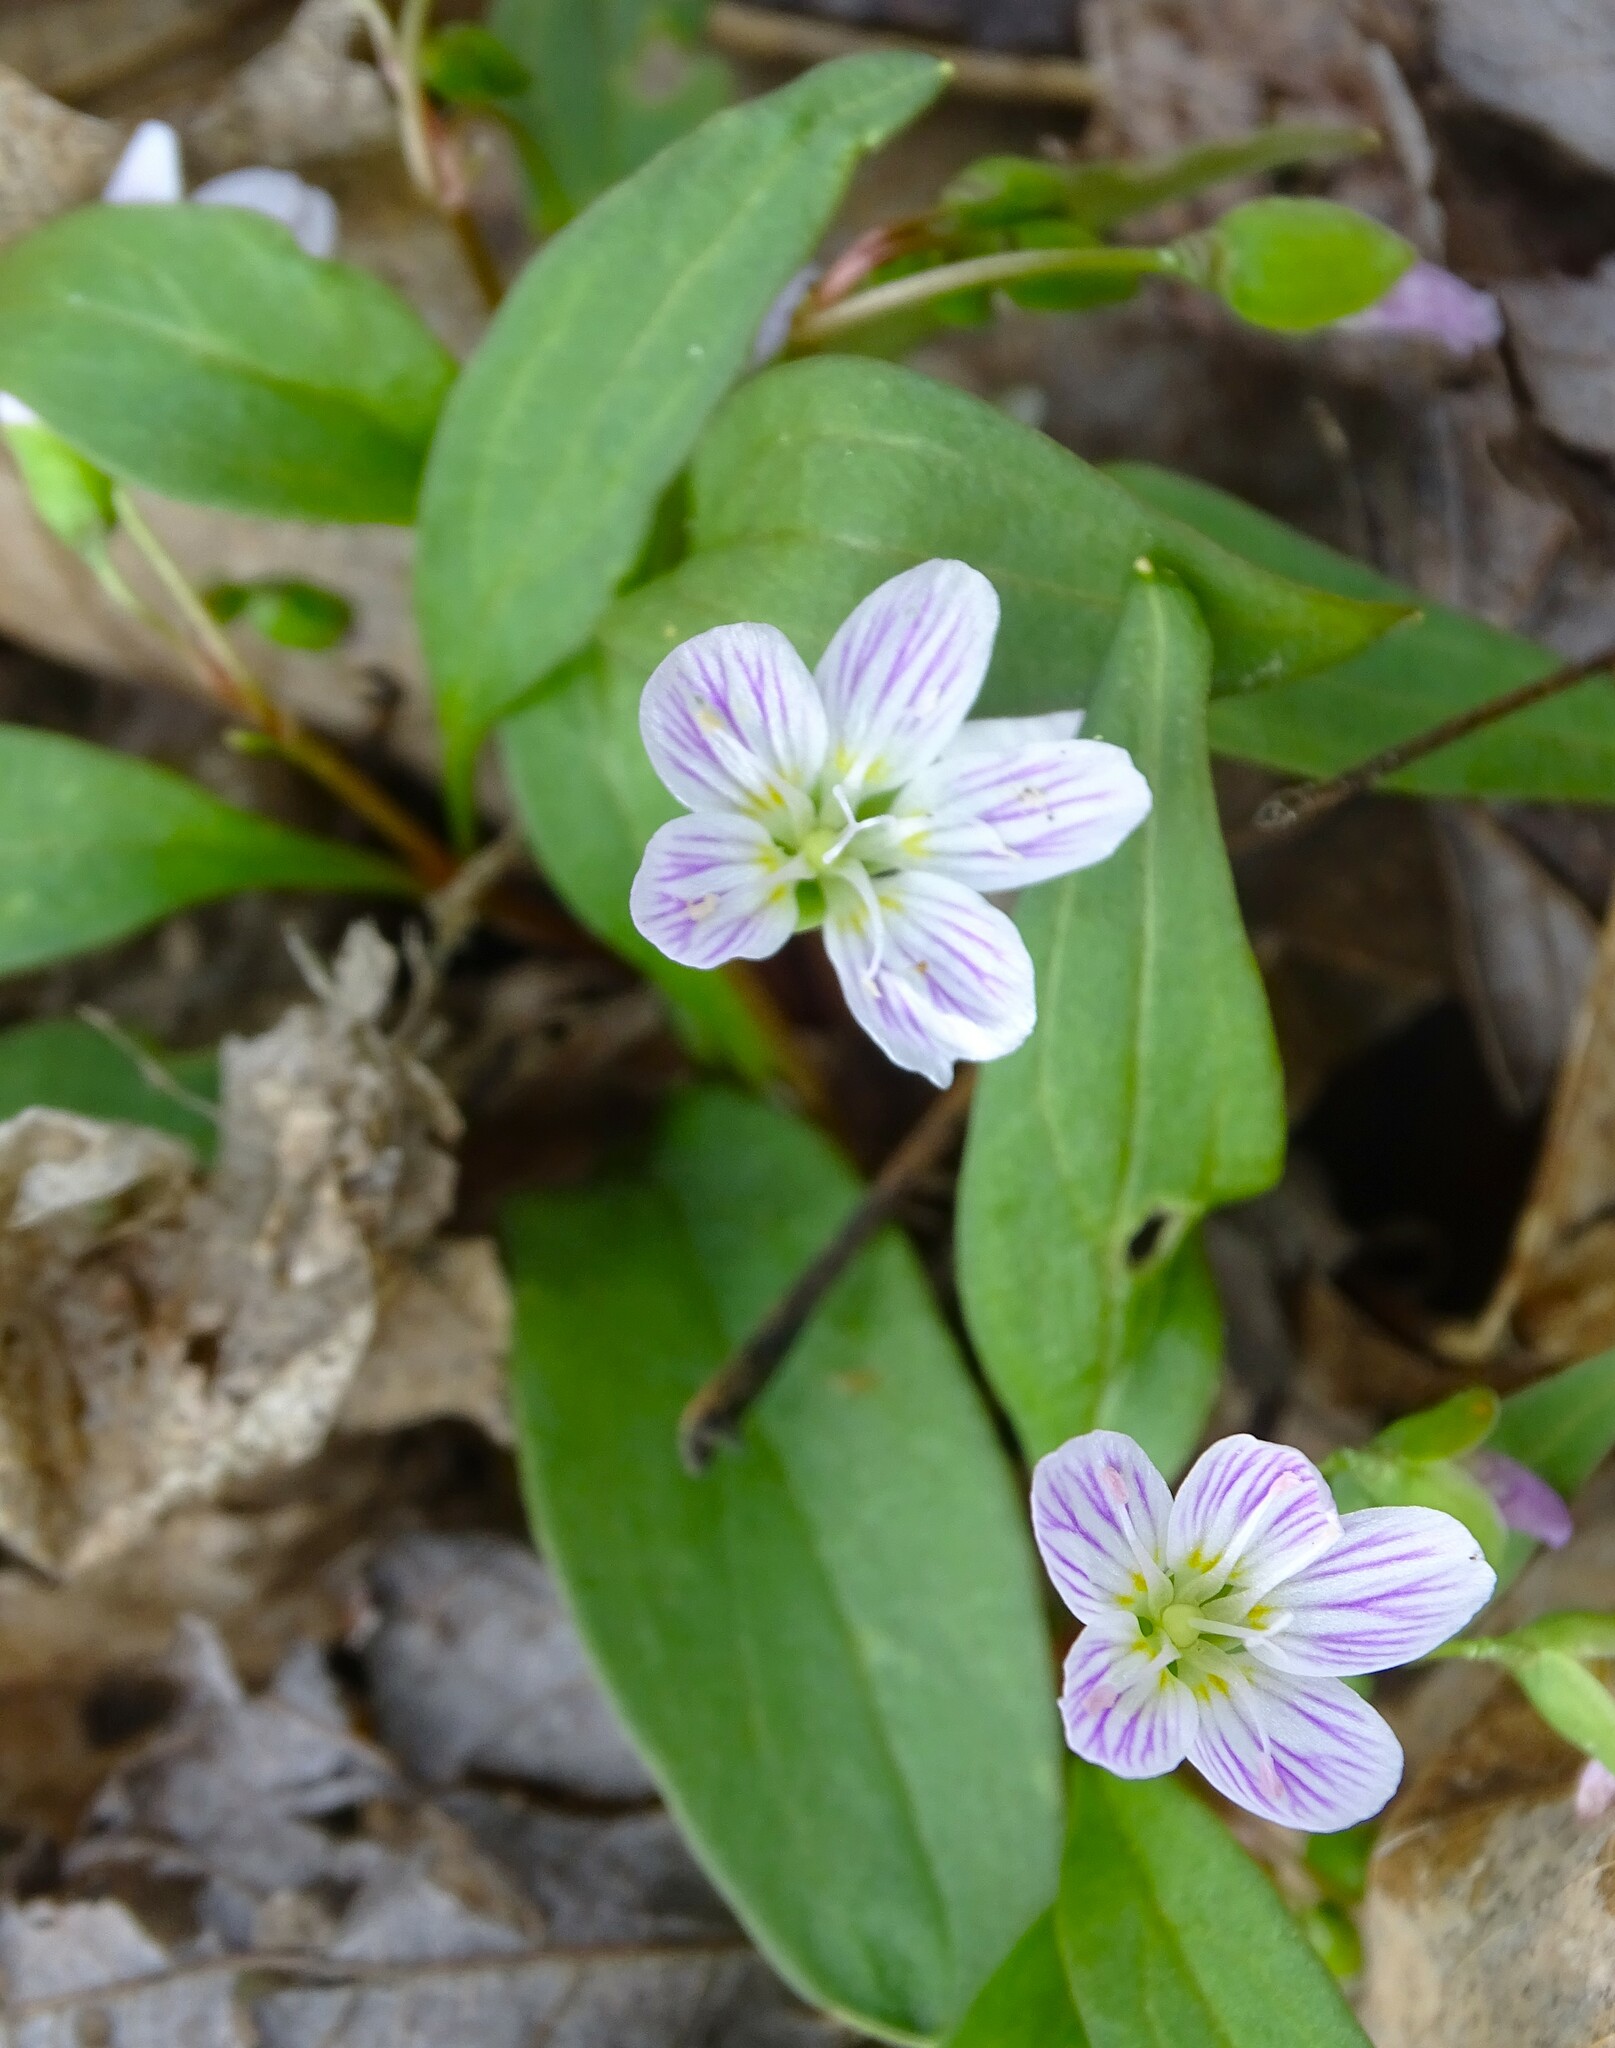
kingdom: Plantae
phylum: Tracheophyta
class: Magnoliopsida
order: Caryophyllales
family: Montiaceae
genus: Claytonia
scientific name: Claytonia caroliniana
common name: Carolina spring beauty
